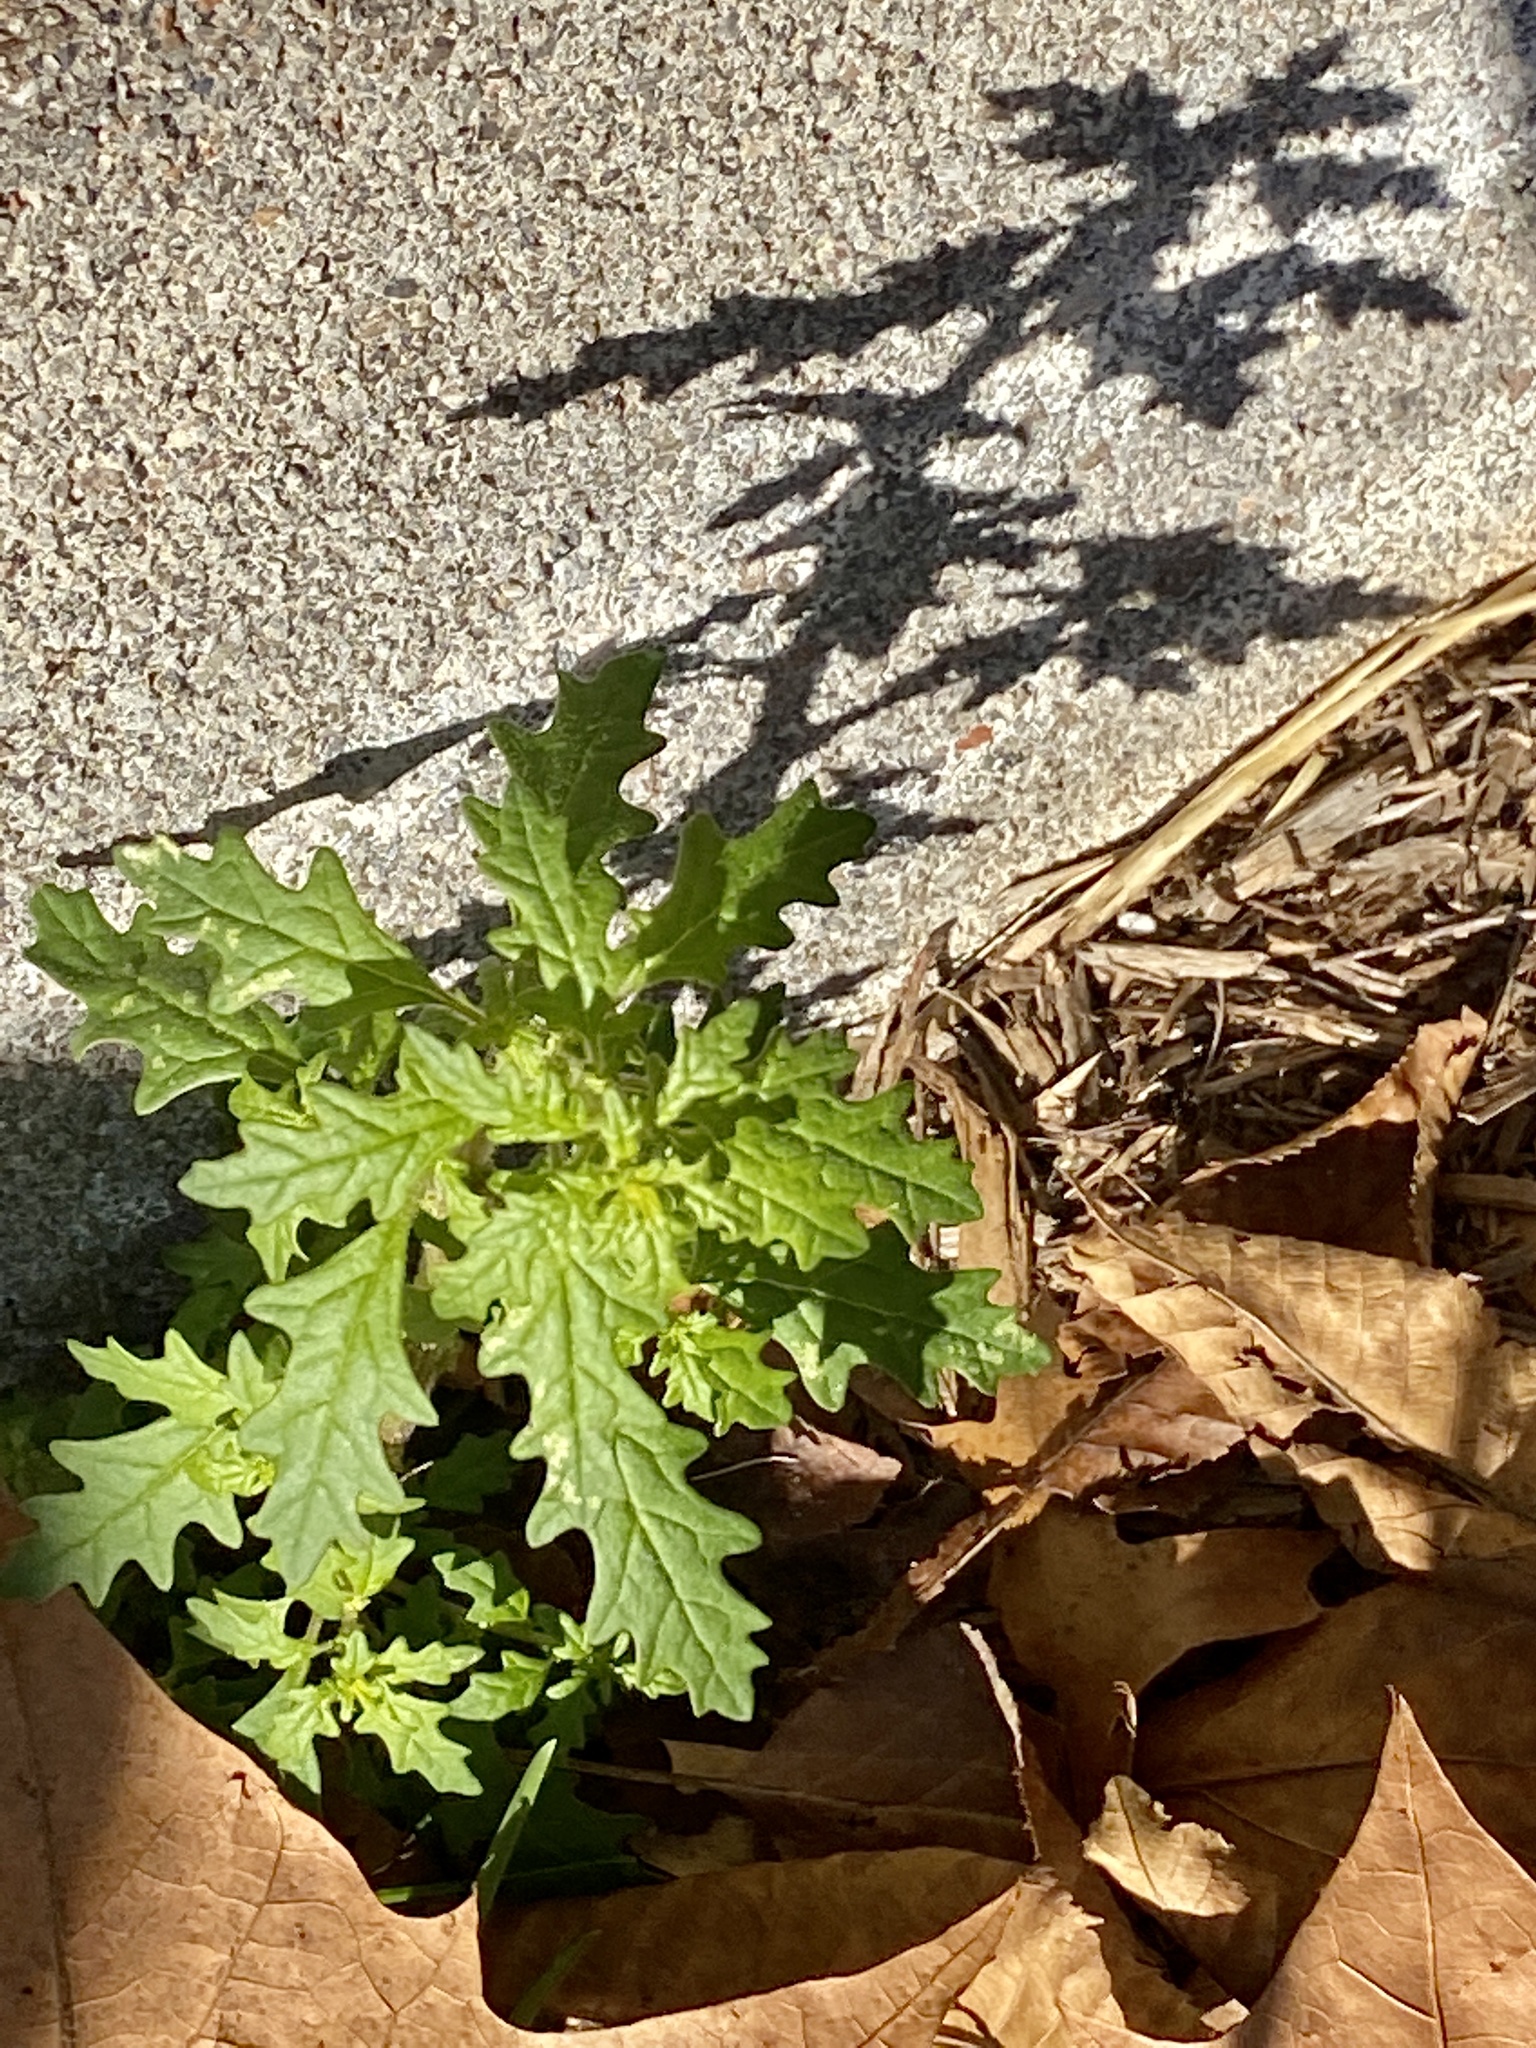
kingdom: Plantae
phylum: Tracheophyta
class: Magnoliopsida
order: Caryophyllales
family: Amaranthaceae
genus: Dysphania
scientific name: Dysphania pumilio
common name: Clammy goosefoot
